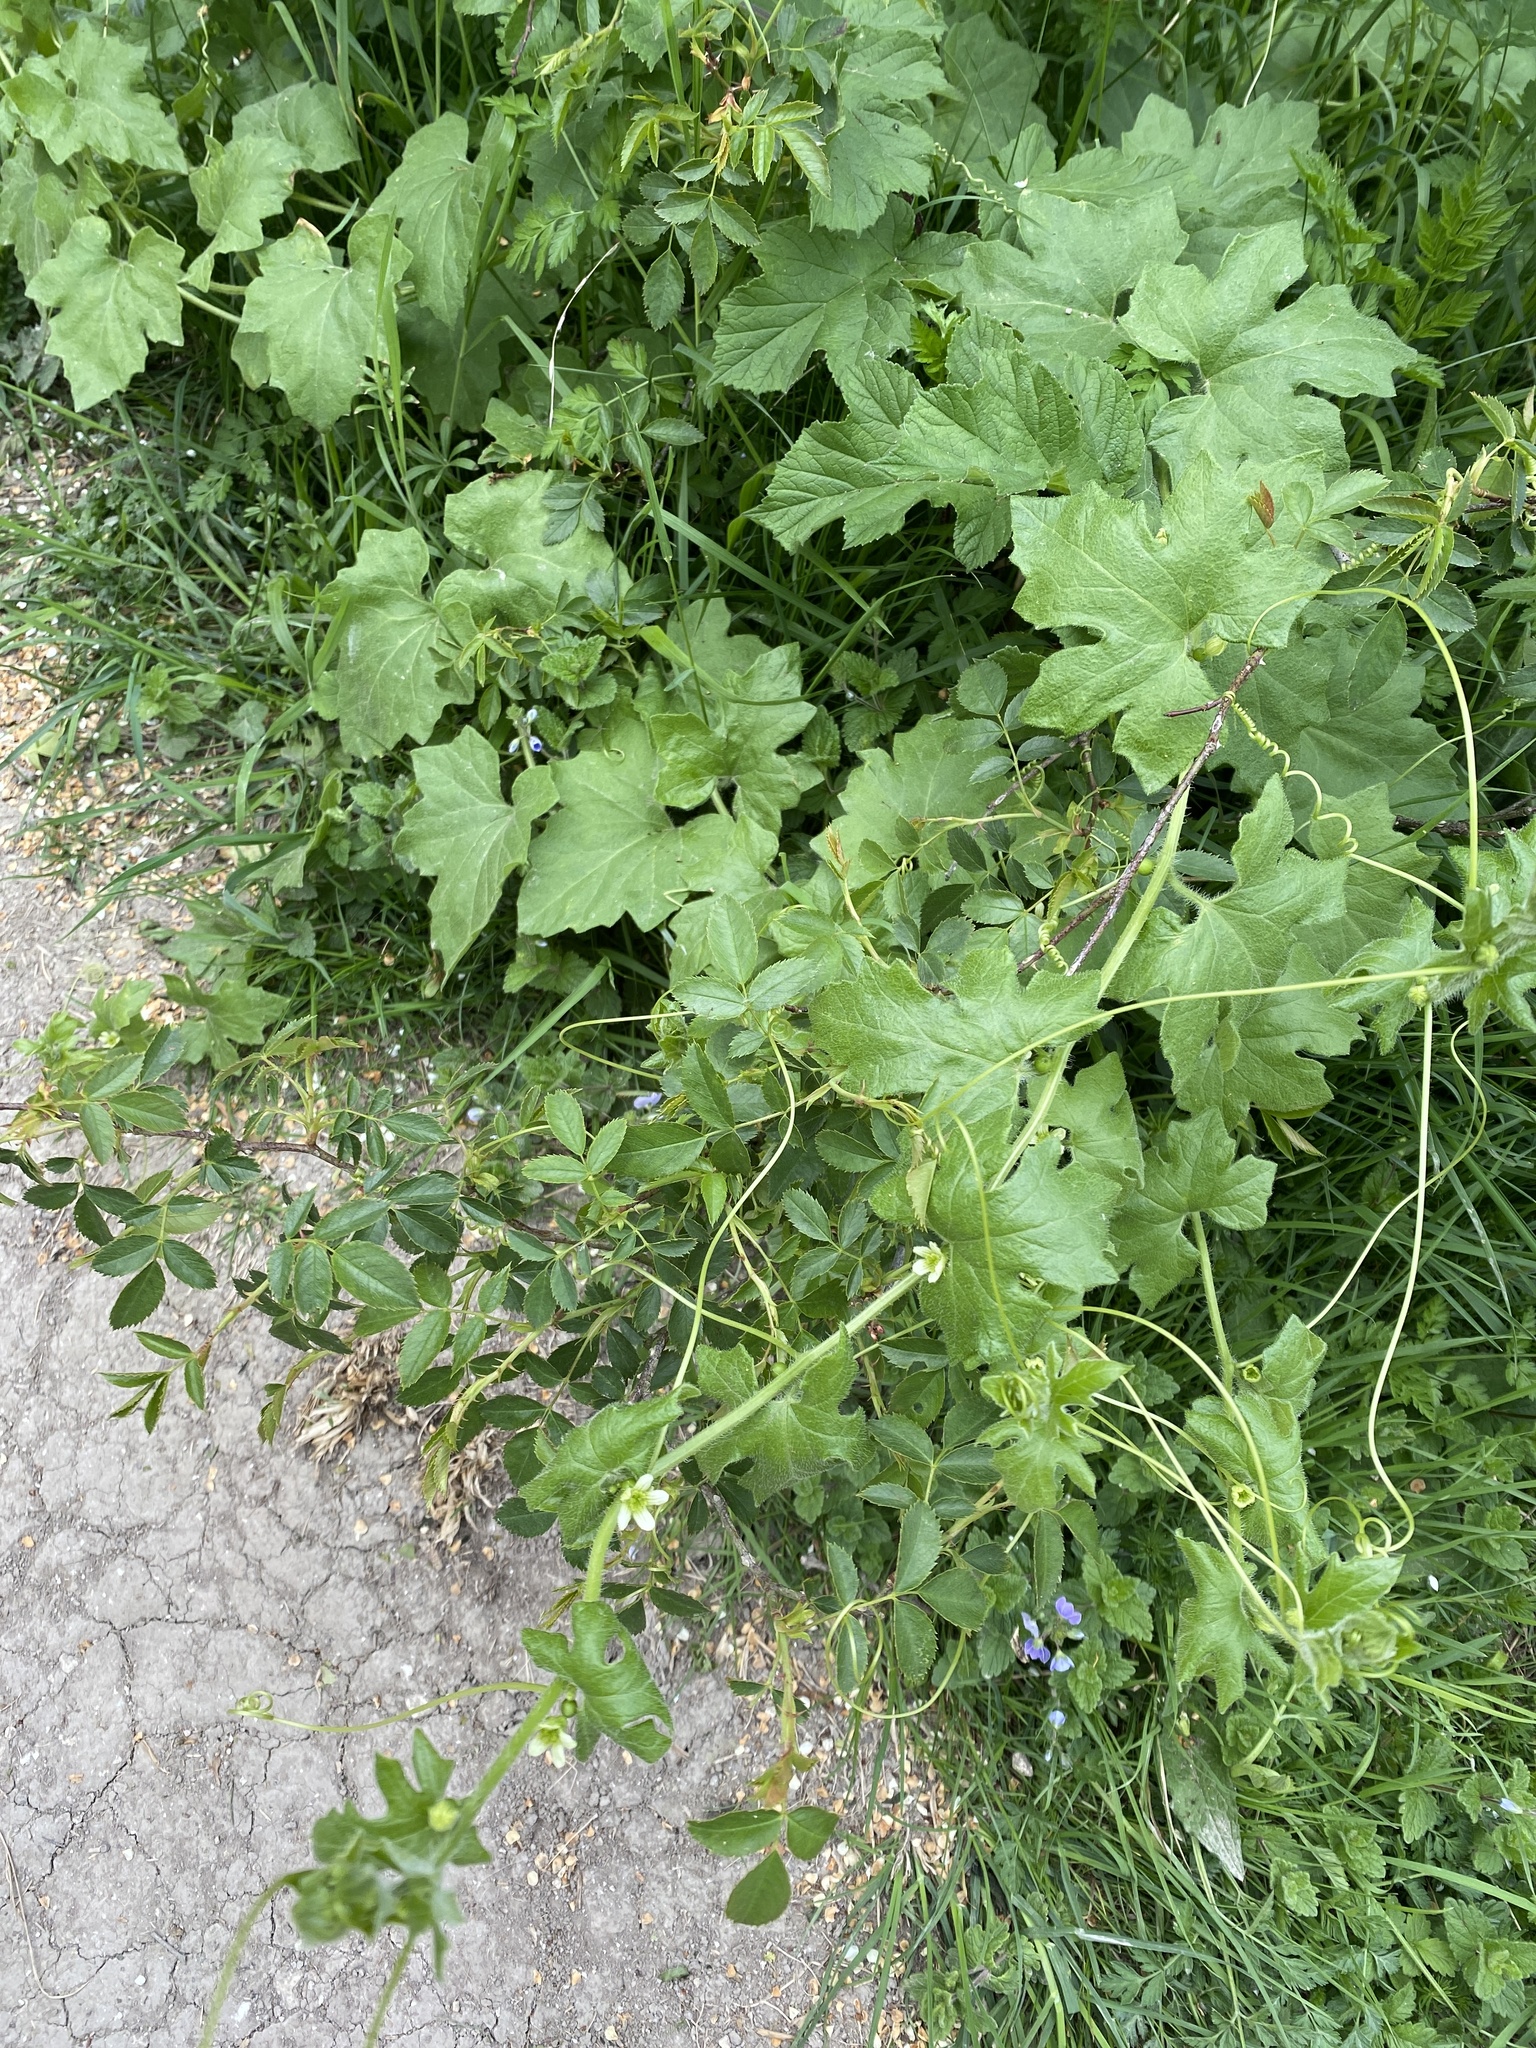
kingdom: Plantae
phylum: Tracheophyta
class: Magnoliopsida
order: Cucurbitales
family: Cucurbitaceae
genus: Bryonia
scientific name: Bryonia cretica
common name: Cretan bryony
